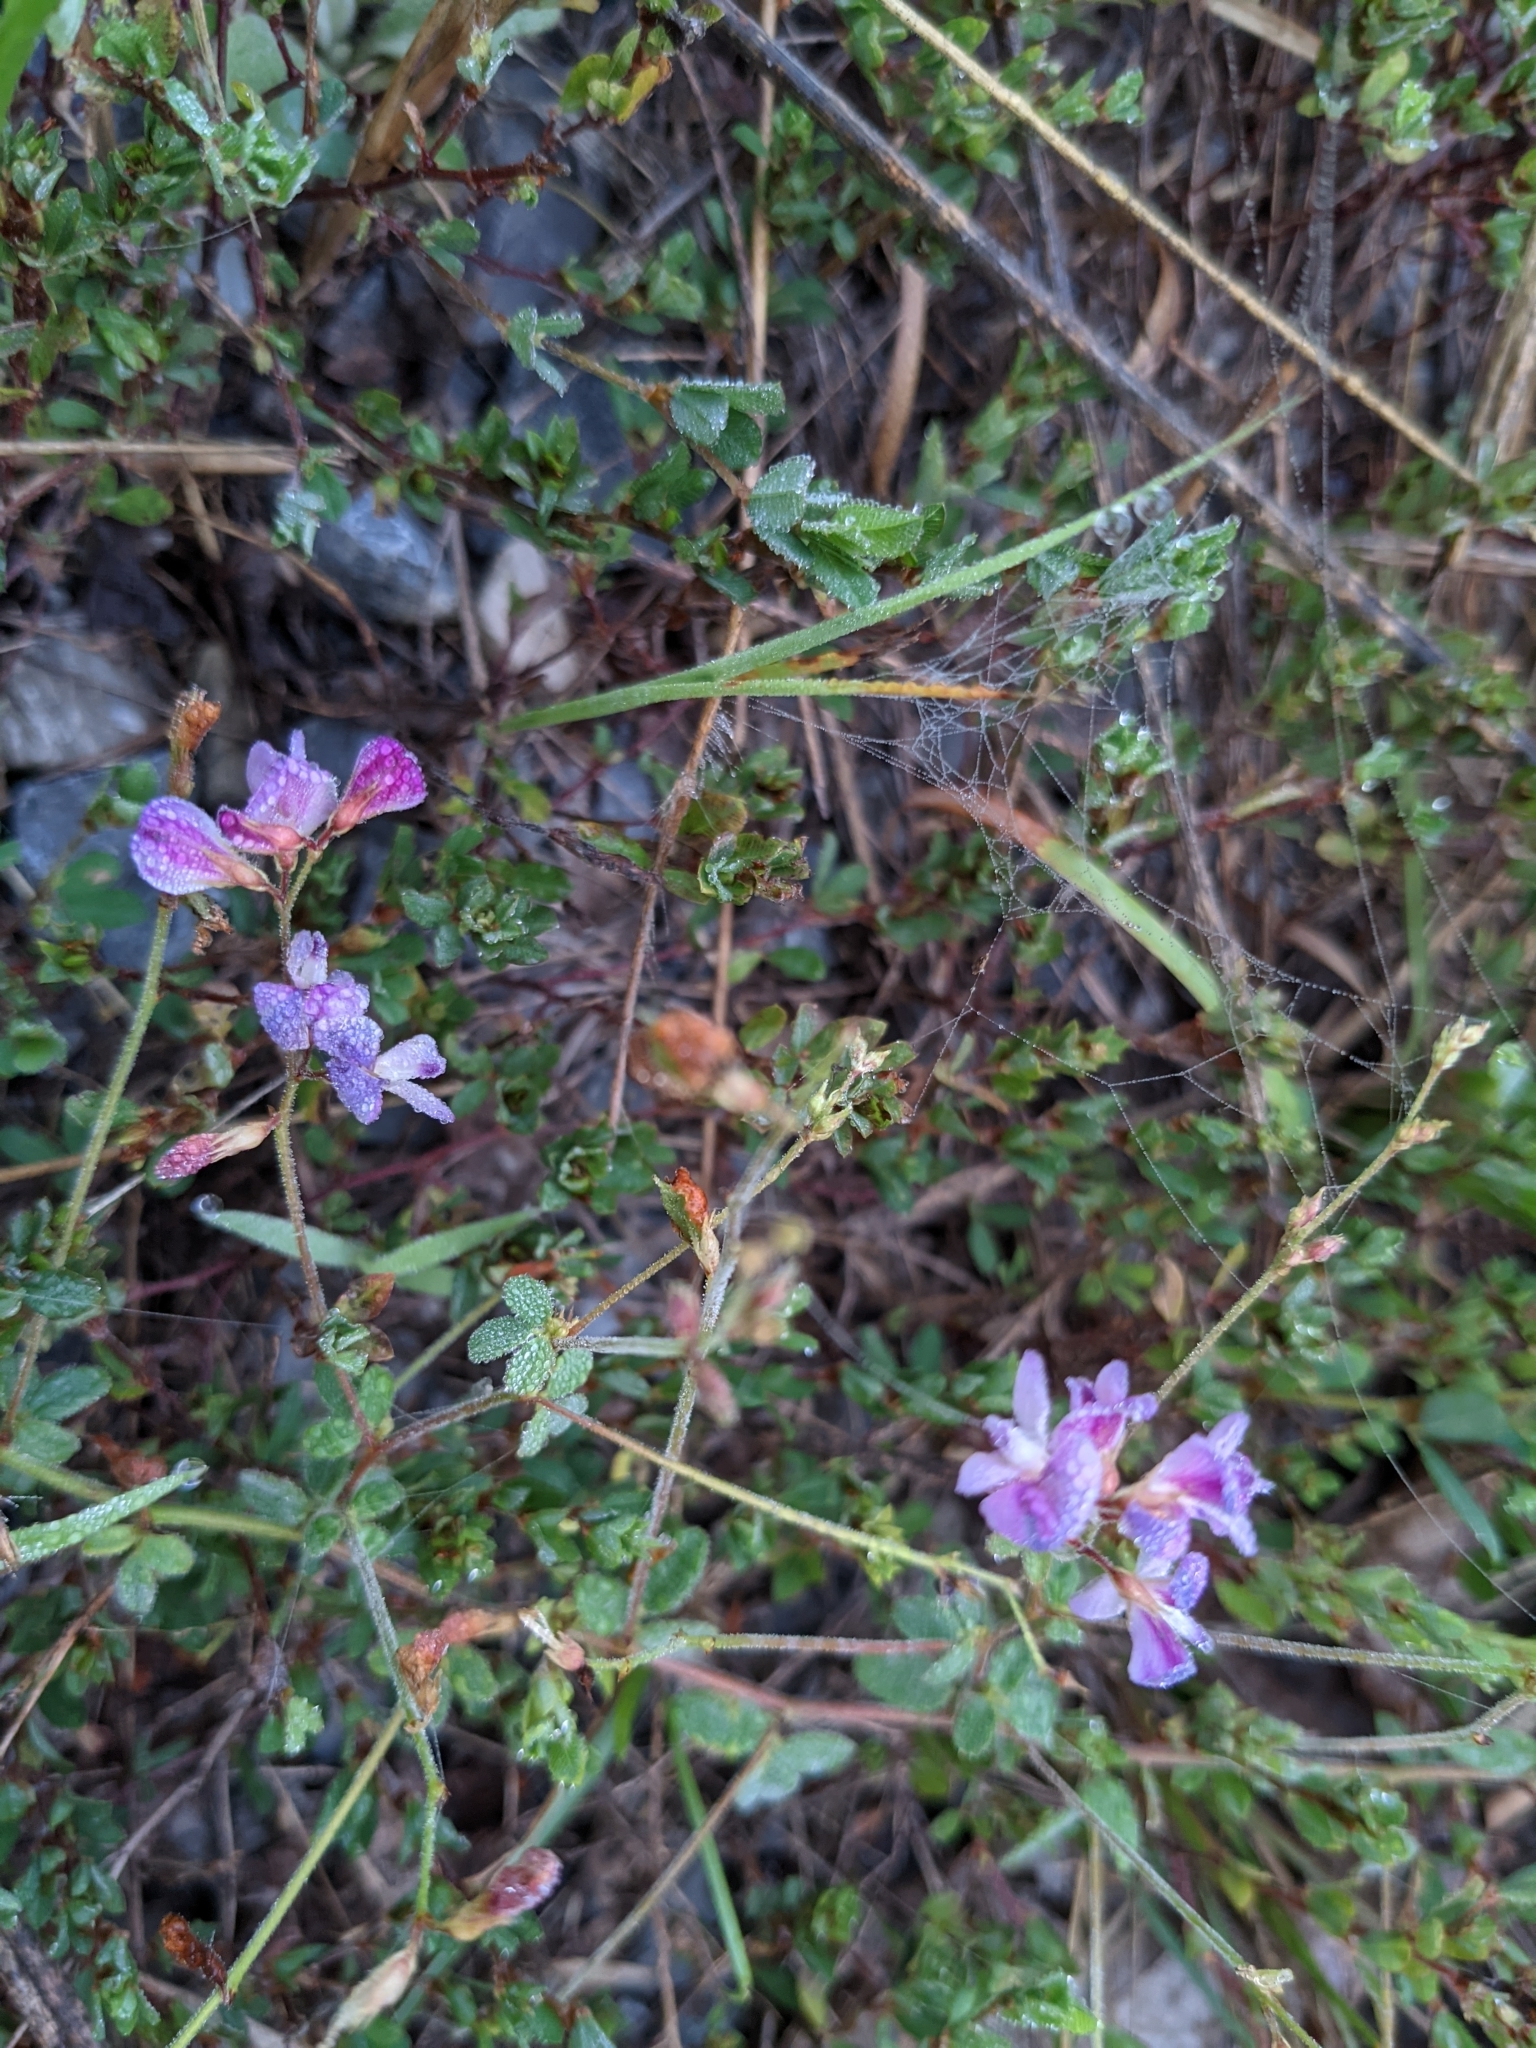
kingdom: Plantae
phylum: Tracheophyta
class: Magnoliopsida
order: Fabales
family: Fabaceae
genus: Lespedeza
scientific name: Lespedeza procumbens
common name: Downy trailing bush-clover
